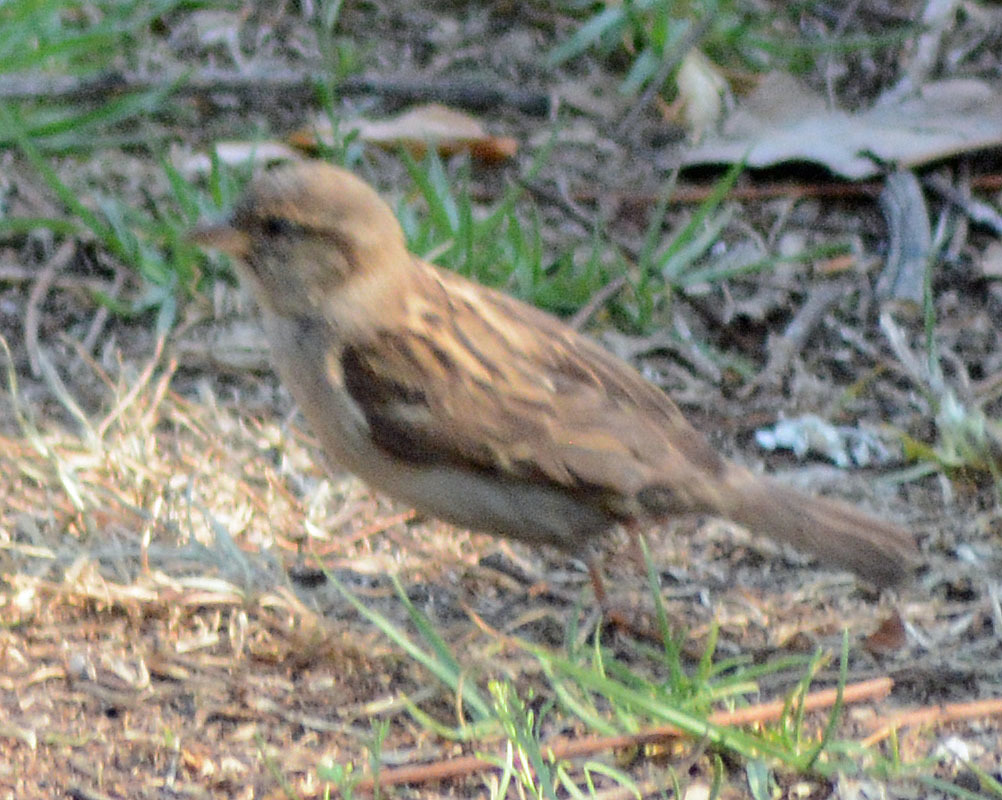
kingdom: Animalia
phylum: Chordata
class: Aves
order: Passeriformes
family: Passeridae
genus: Passer
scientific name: Passer domesticus
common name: House sparrow
